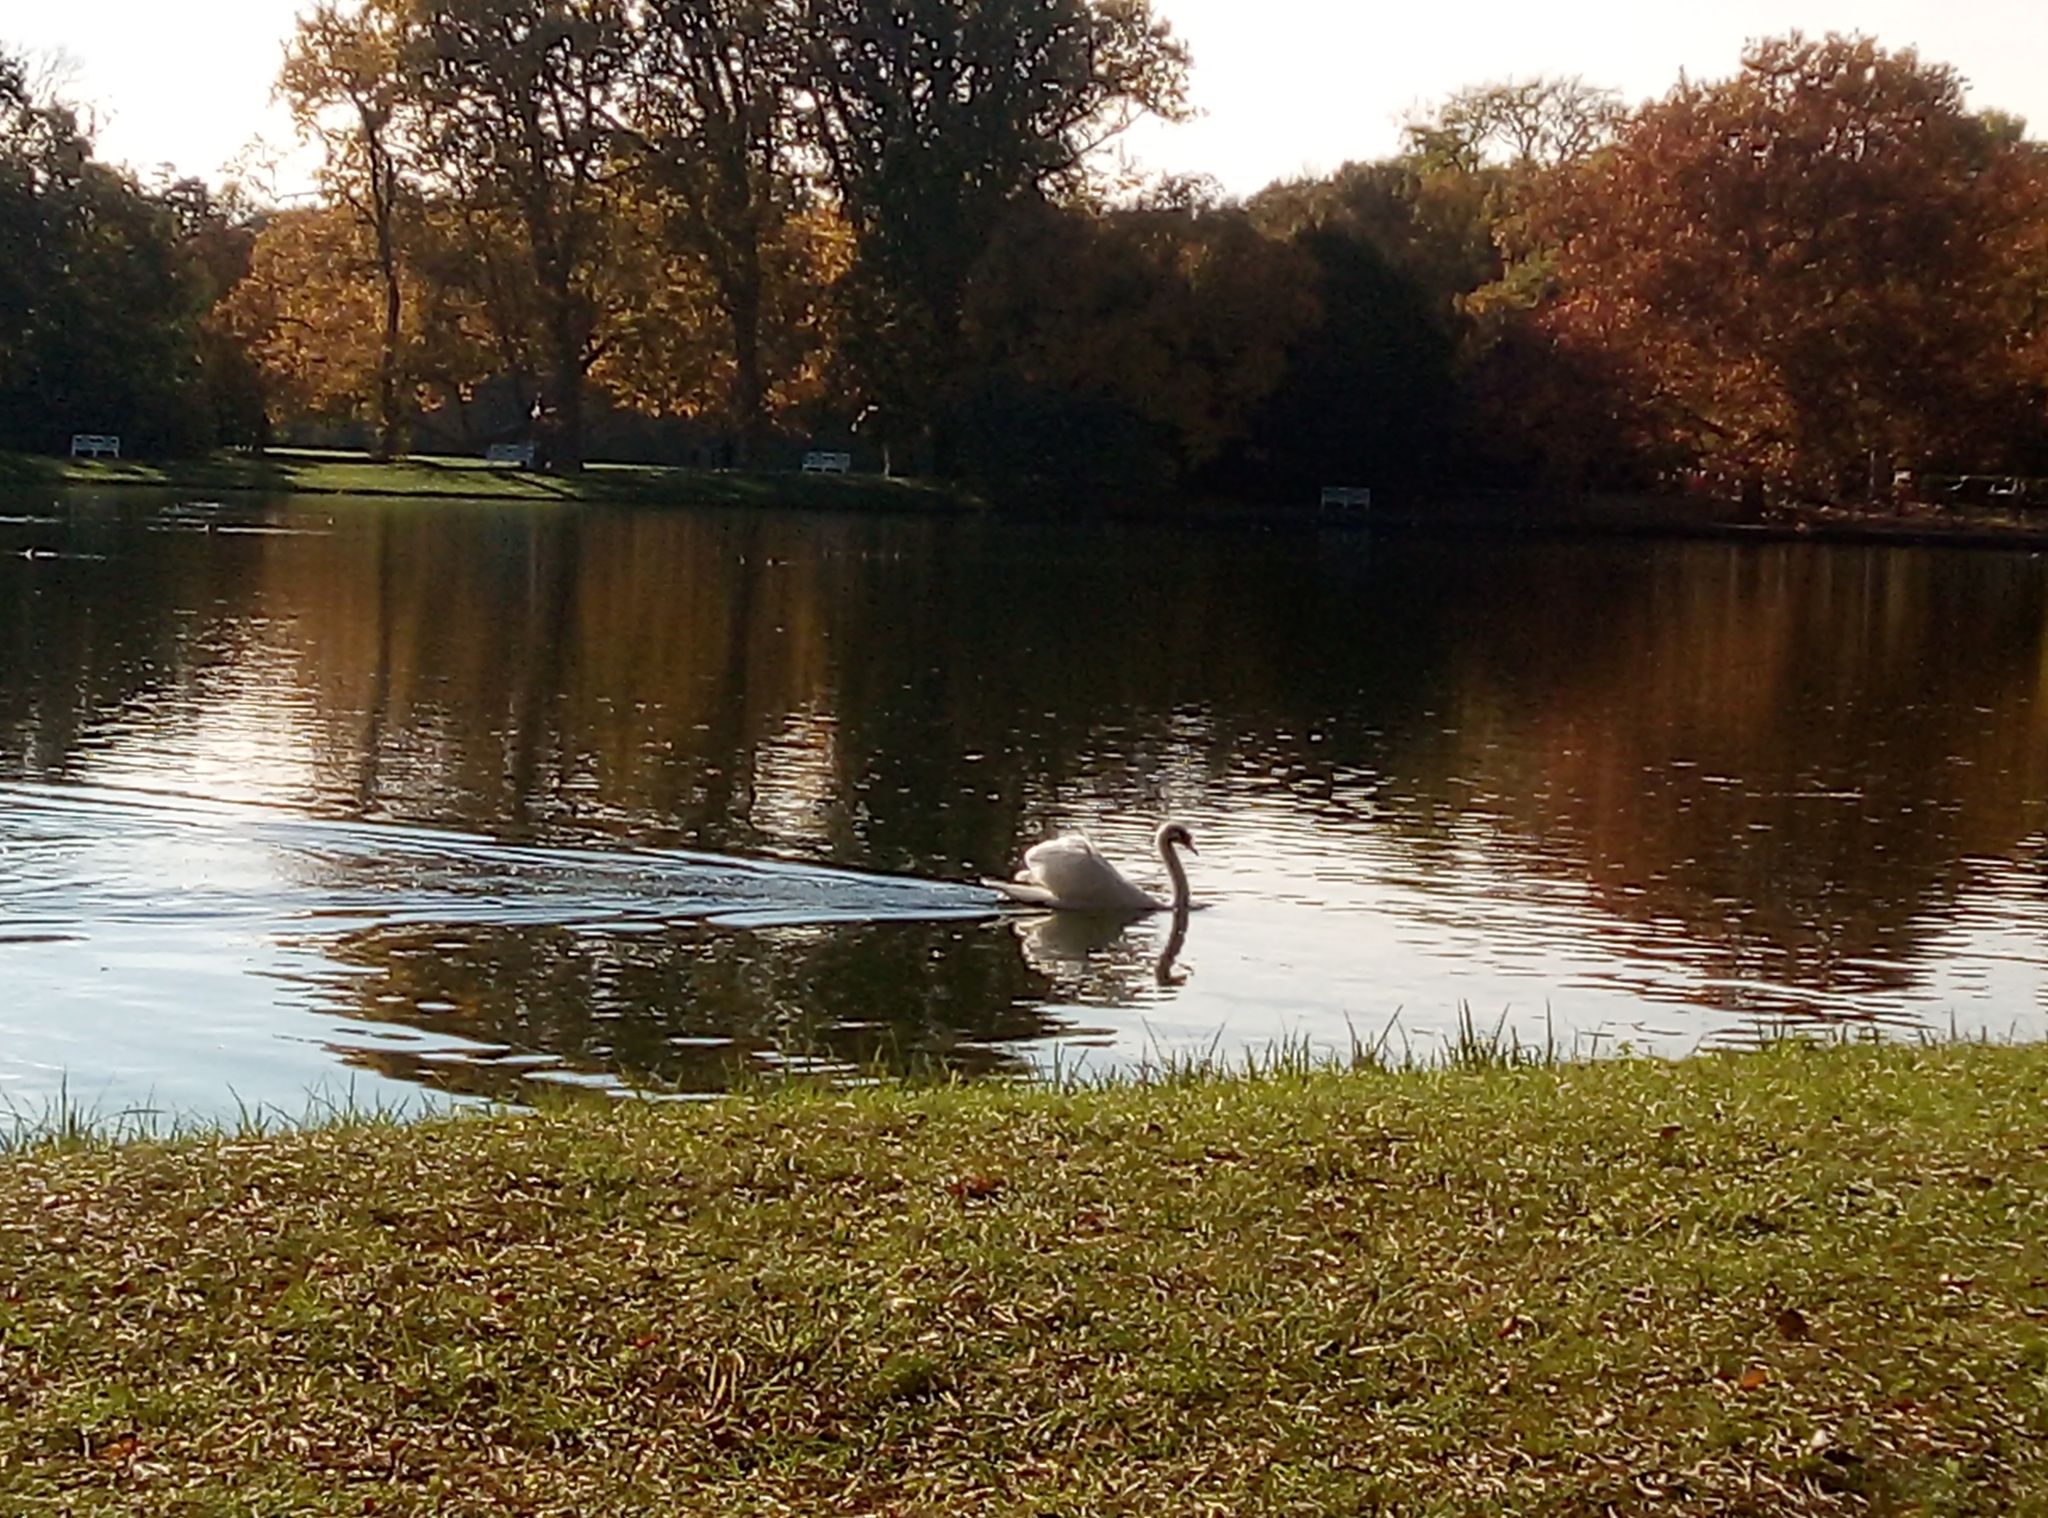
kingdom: Animalia
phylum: Chordata
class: Aves
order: Anseriformes
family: Anatidae
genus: Cygnus
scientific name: Cygnus olor
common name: Mute swan
